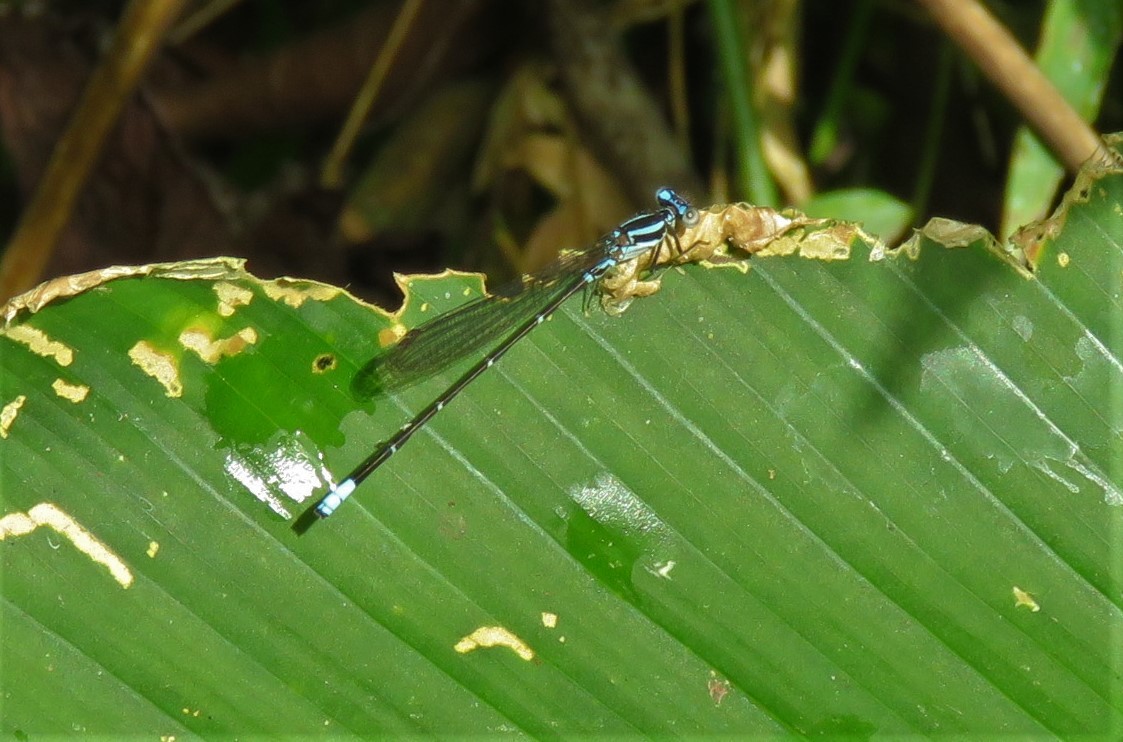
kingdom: Animalia
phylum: Arthropoda
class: Insecta
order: Odonata
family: Coenagrionidae
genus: Argia
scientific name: Argia pulla
